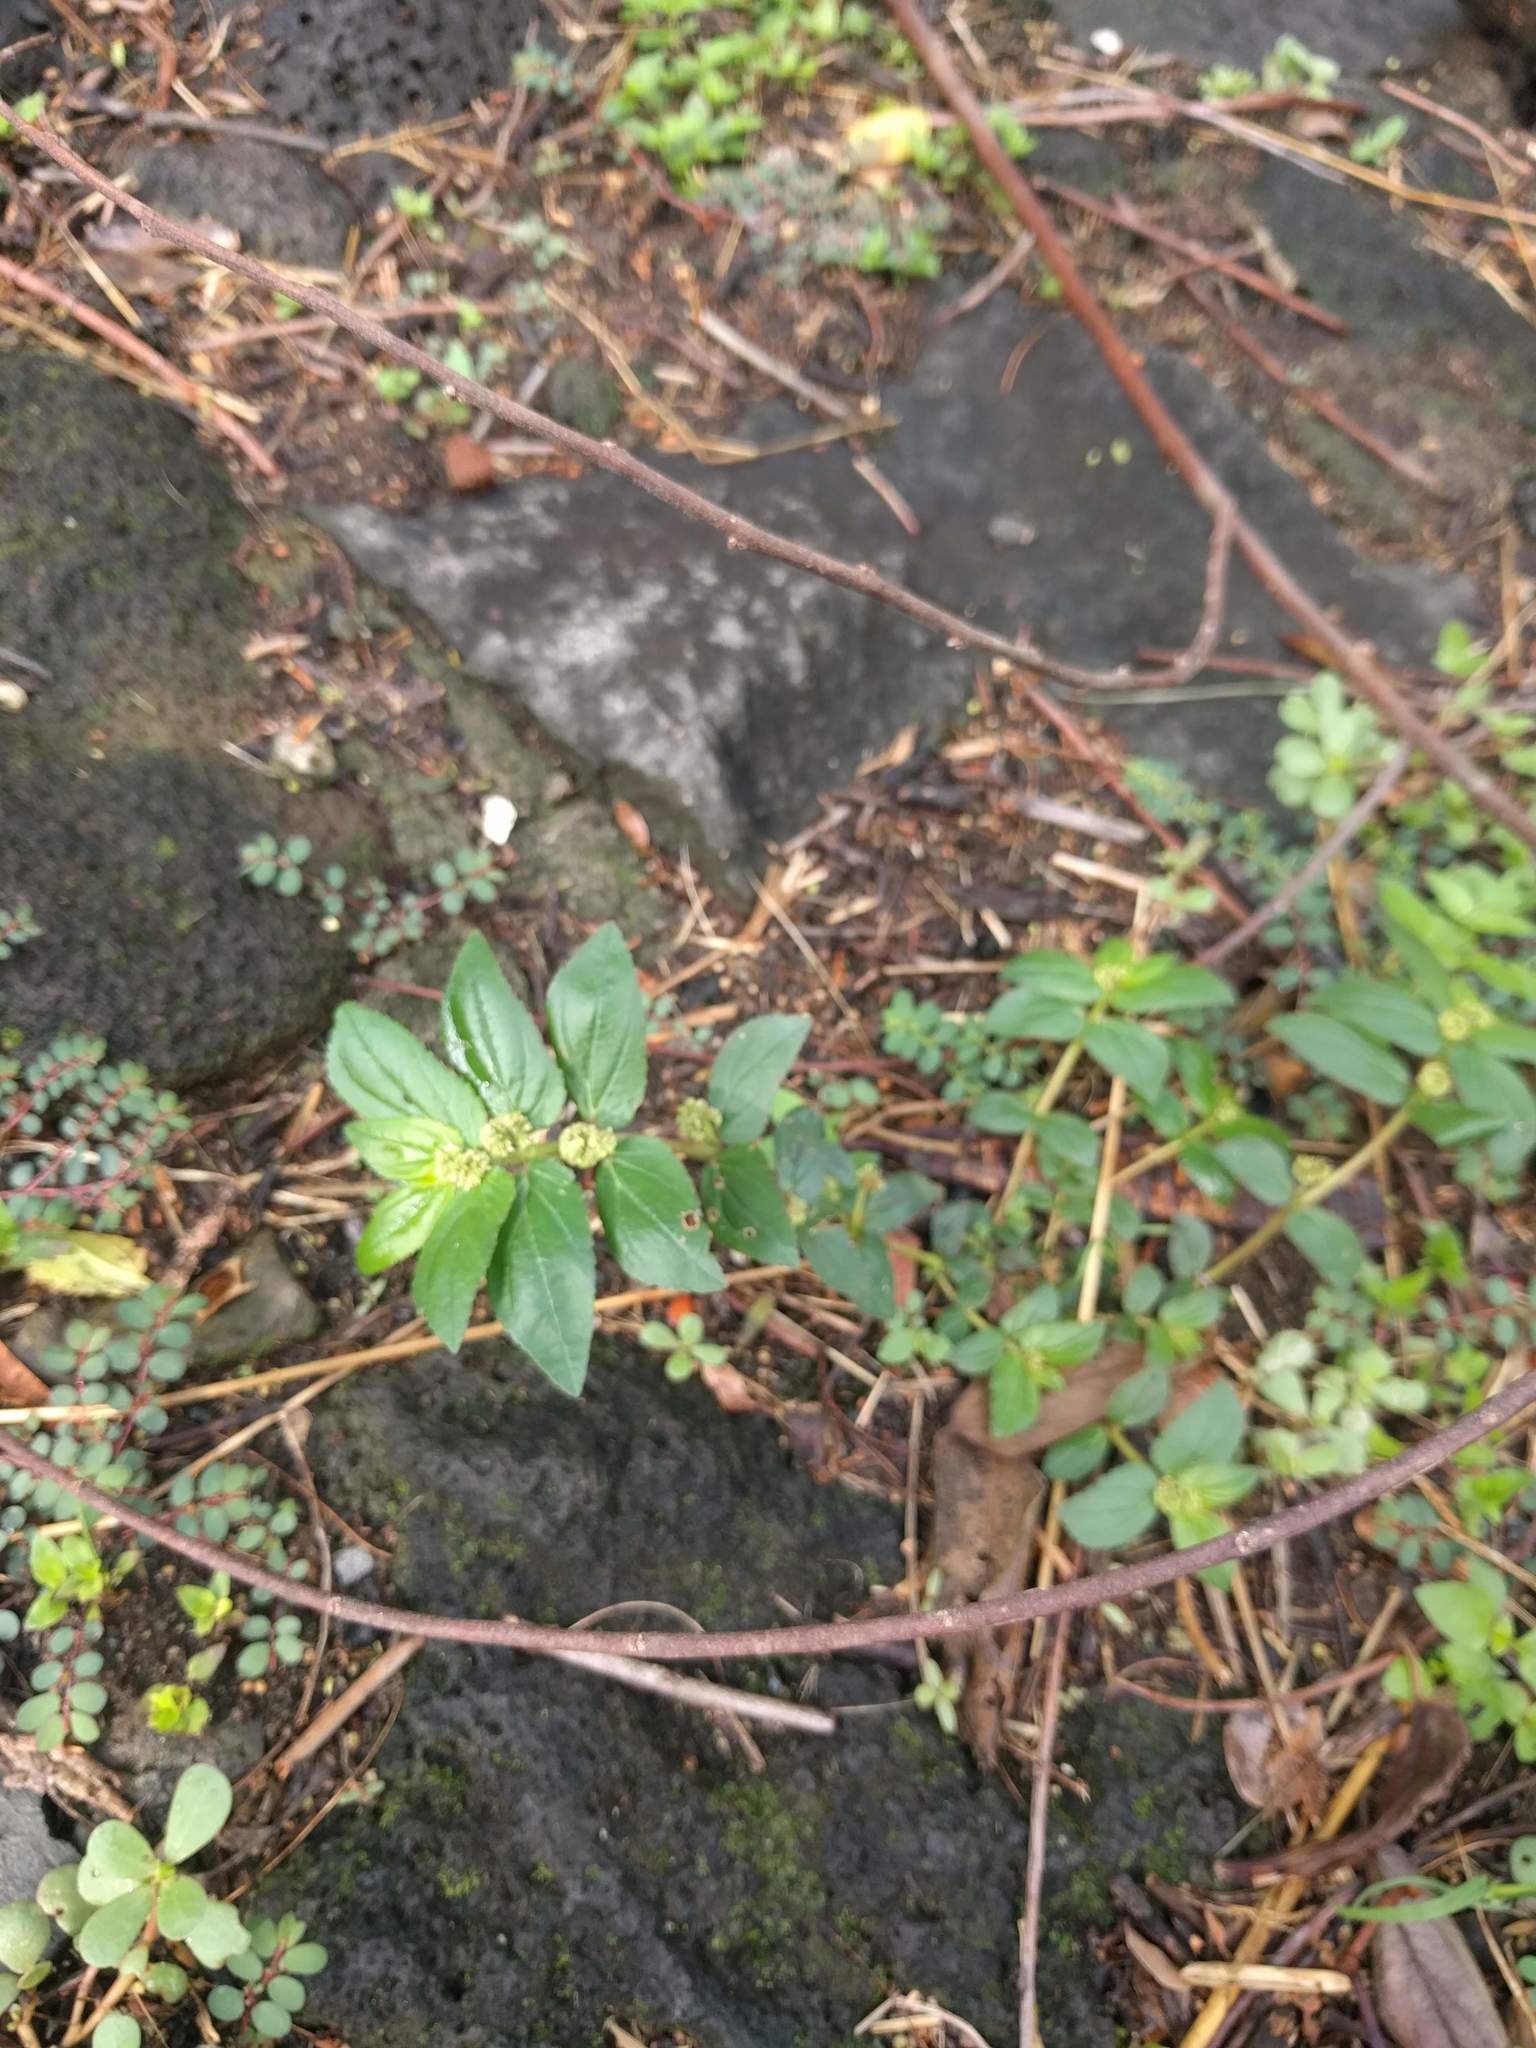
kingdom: Plantae
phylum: Tracheophyta
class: Magnoliopsida
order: Malpighiales
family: Euphorbiaceae
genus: Euphorbia
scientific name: Euphorbia hirta
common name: Pillpod sandmat
